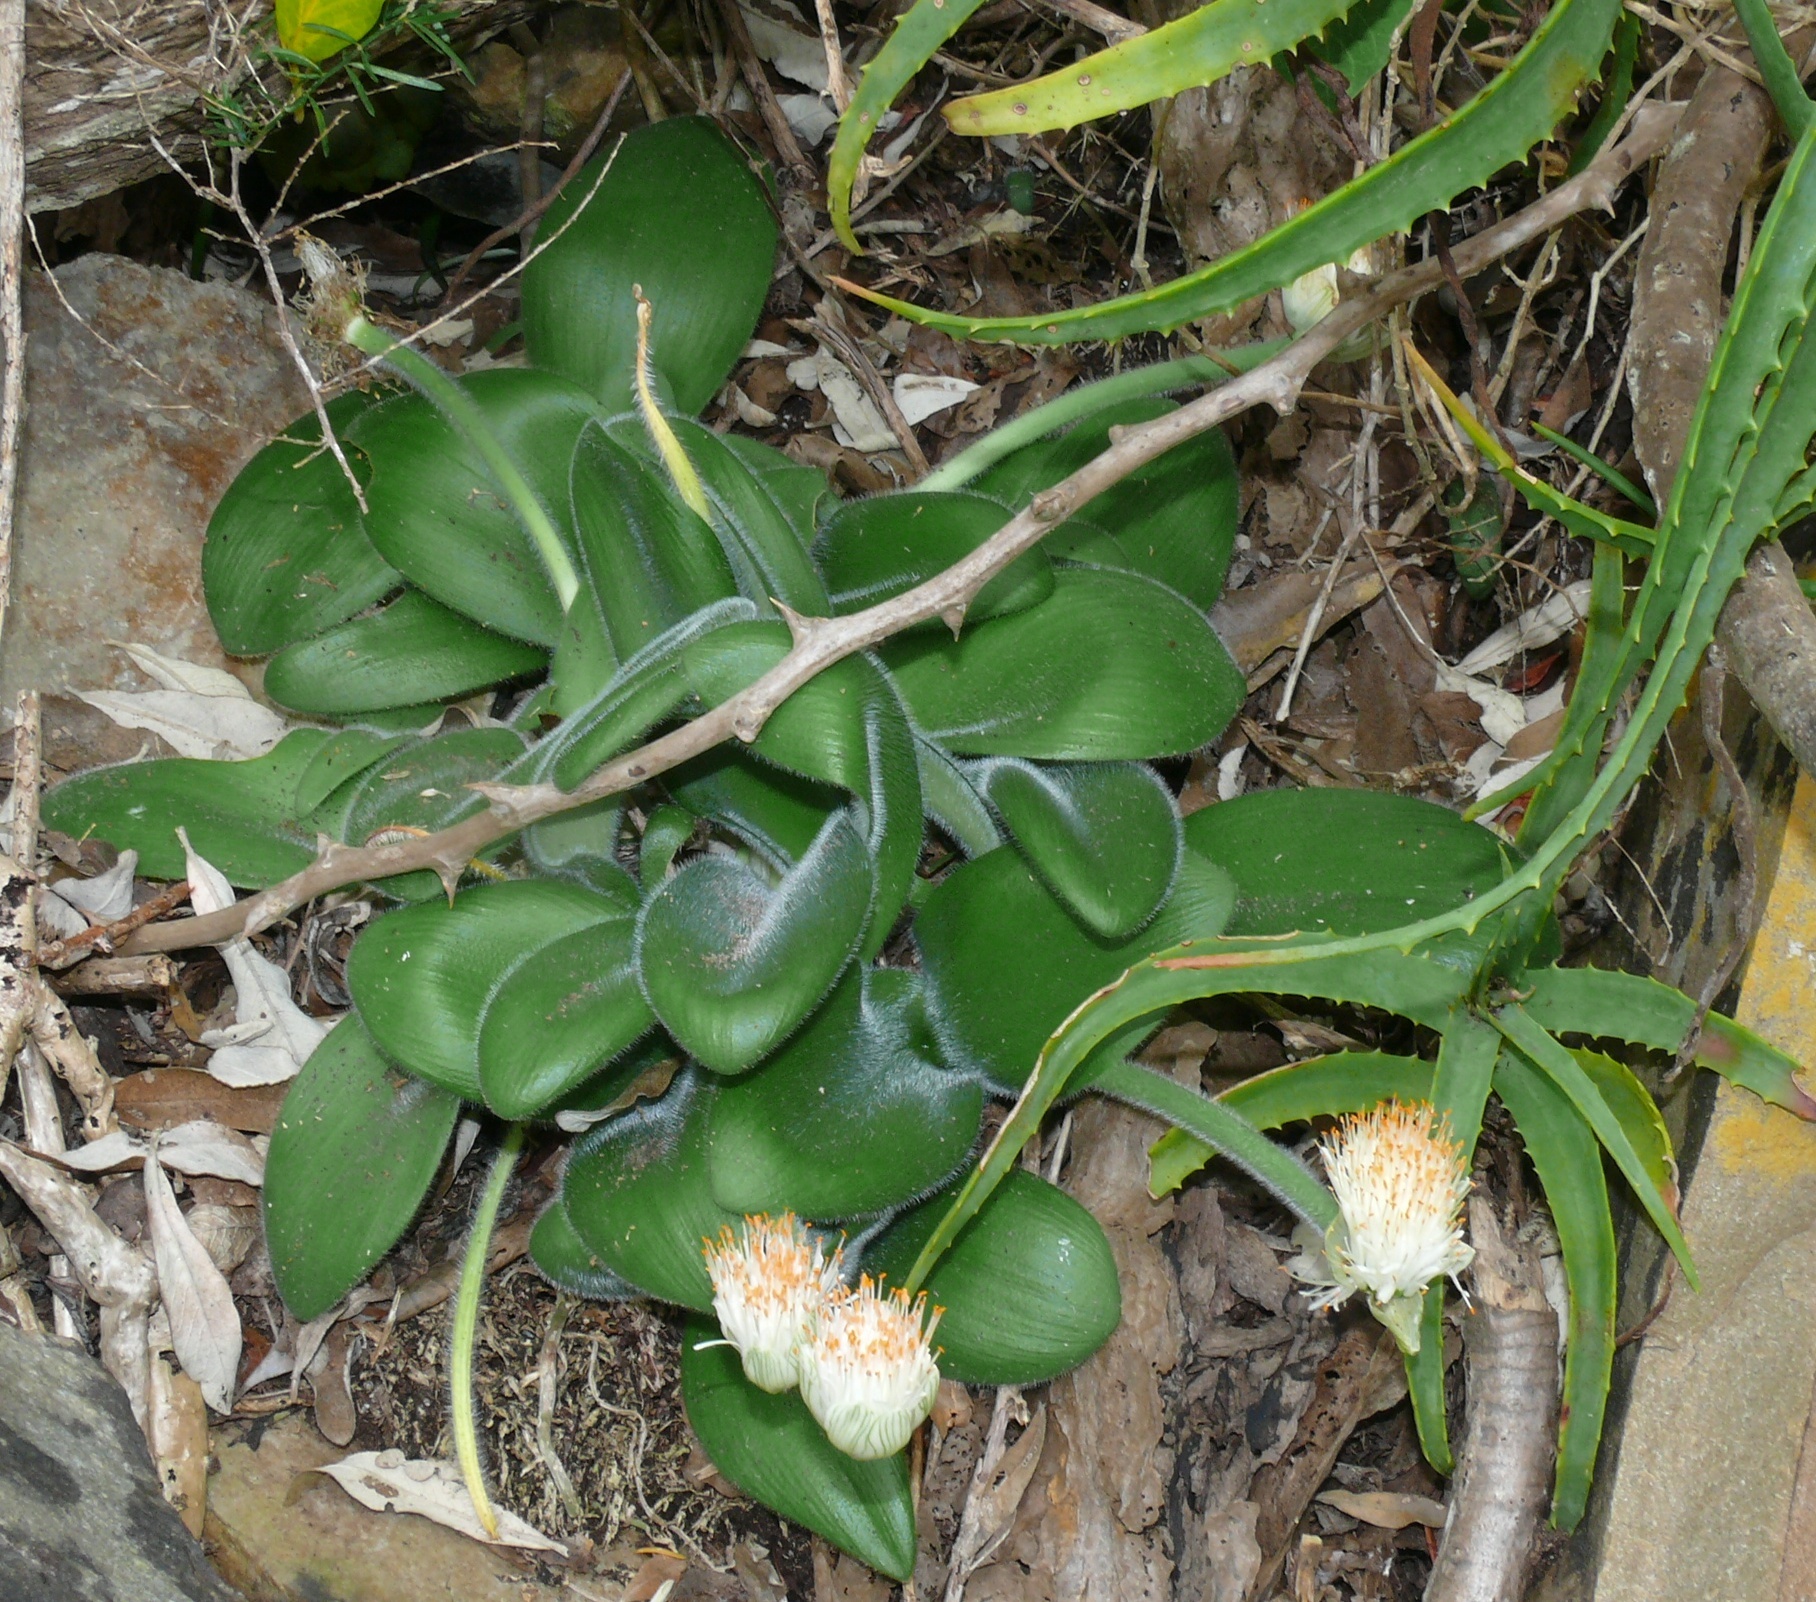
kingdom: Plantae
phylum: Tracheophyta
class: Liliopsida
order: Asparagales
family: Amaryllidaceae
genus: Haemanthus
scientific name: Haemanthus albiflos
